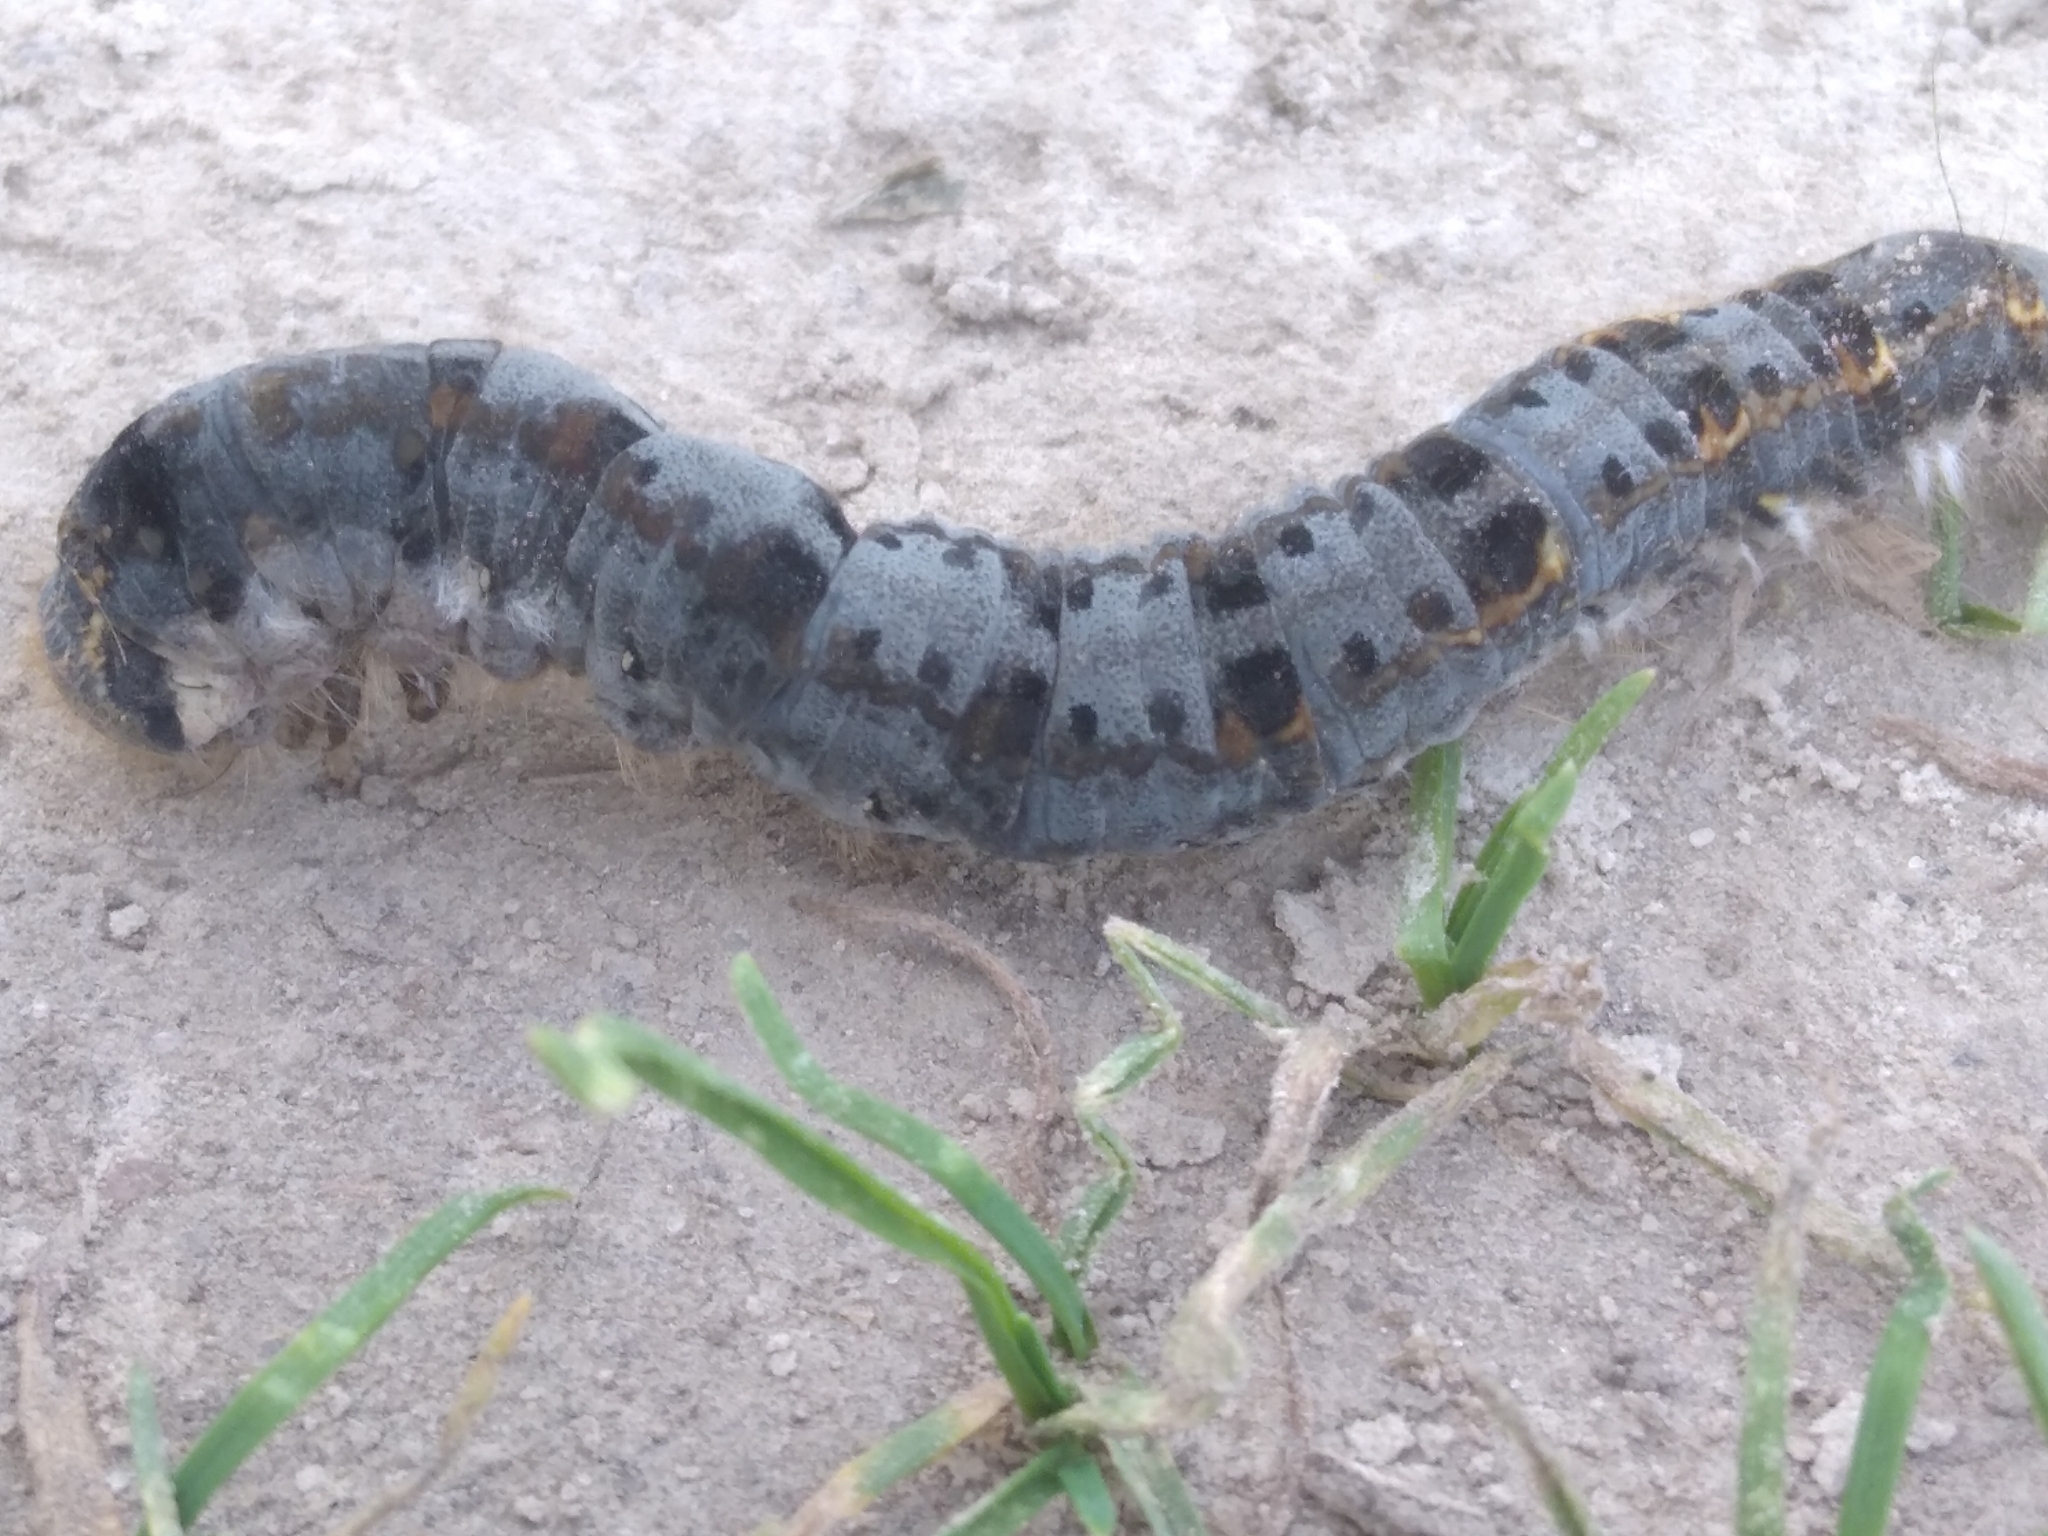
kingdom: Animalia
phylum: Arthropoda
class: Insecta
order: Lepidoptera
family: Lasiocampidae
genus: Euthrix
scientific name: Euthrix potatoria
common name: Drinker
